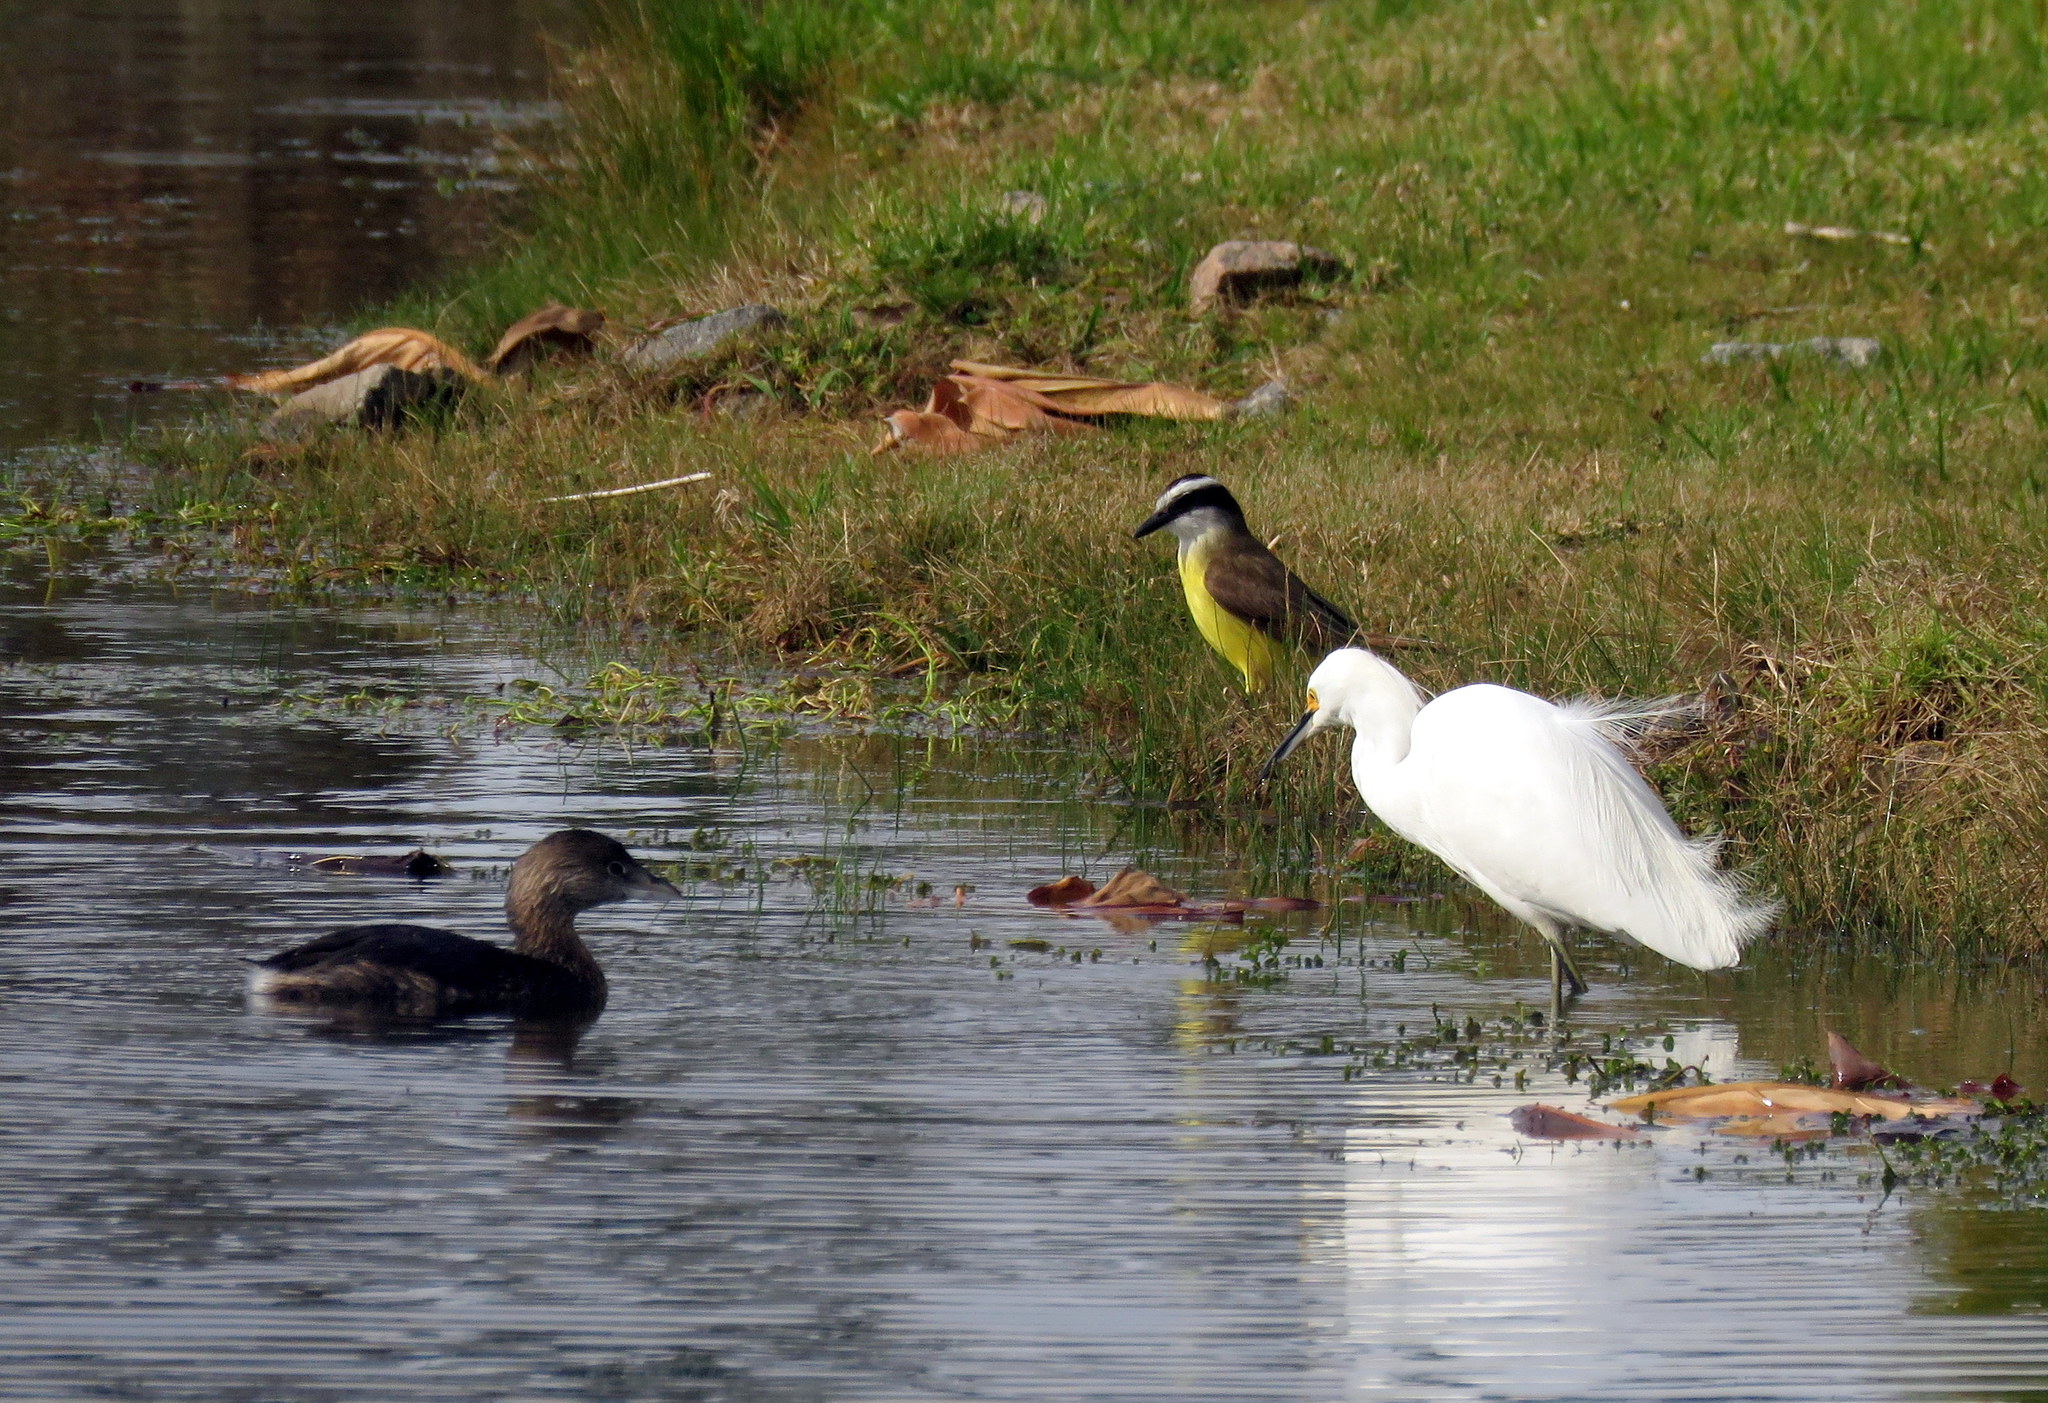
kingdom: Animalia
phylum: Chordata
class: Aves
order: Podicipediformes
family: Podicipedidae
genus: Podilymbus
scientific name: Podilymbus podiceps
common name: Pied-billed grebe
